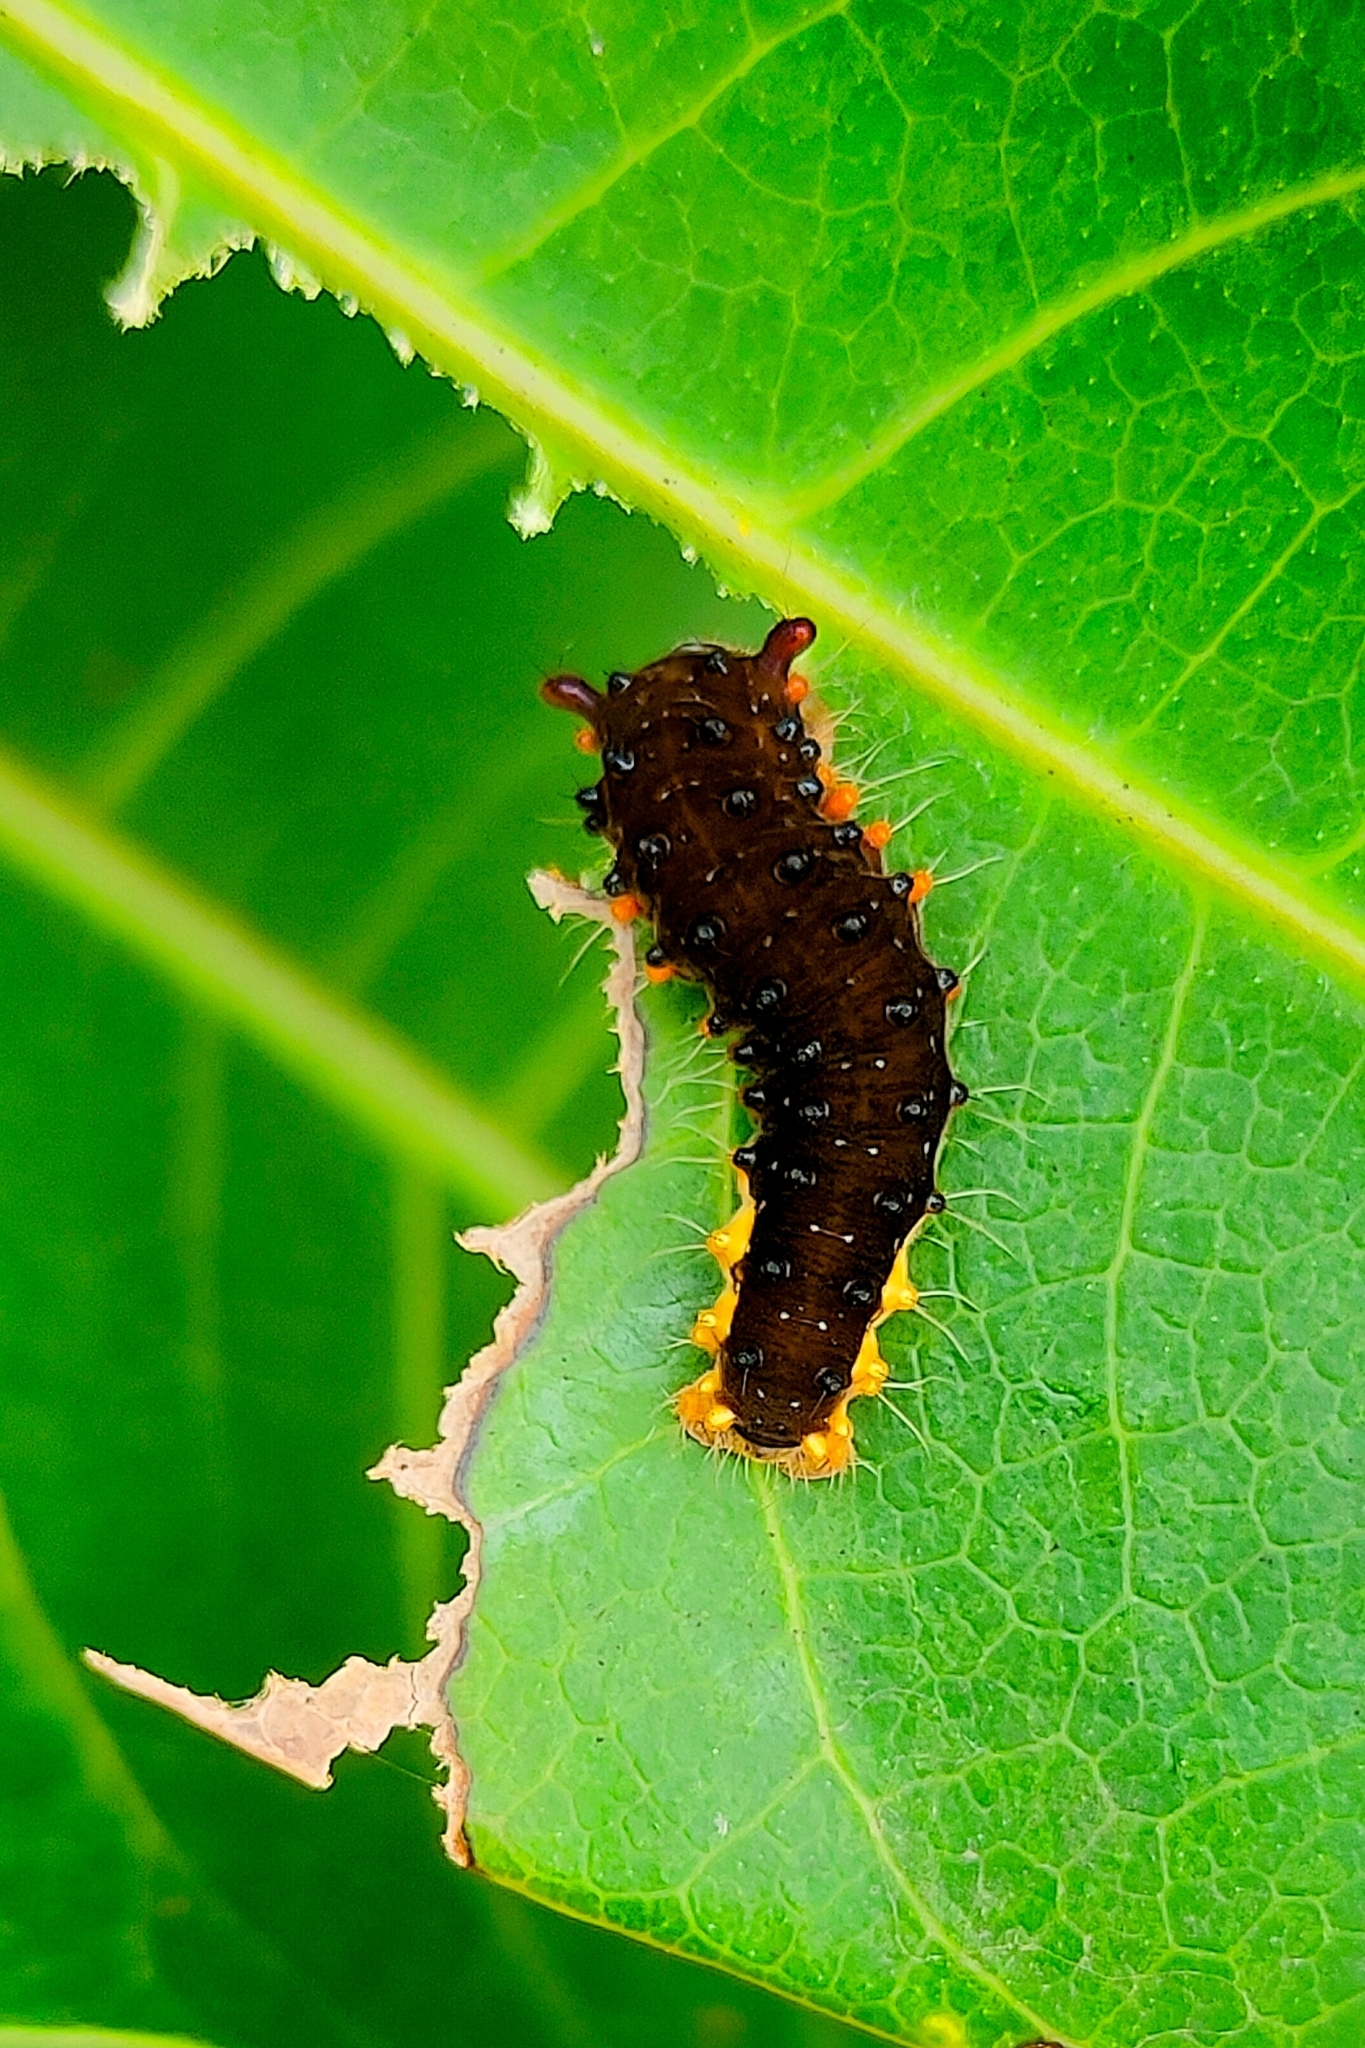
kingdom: Animalia
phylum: Arthropoda
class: Insecta
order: Lepidoptera
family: Zygaenidae
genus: Trypanophora
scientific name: Trypanophora semihyalina
